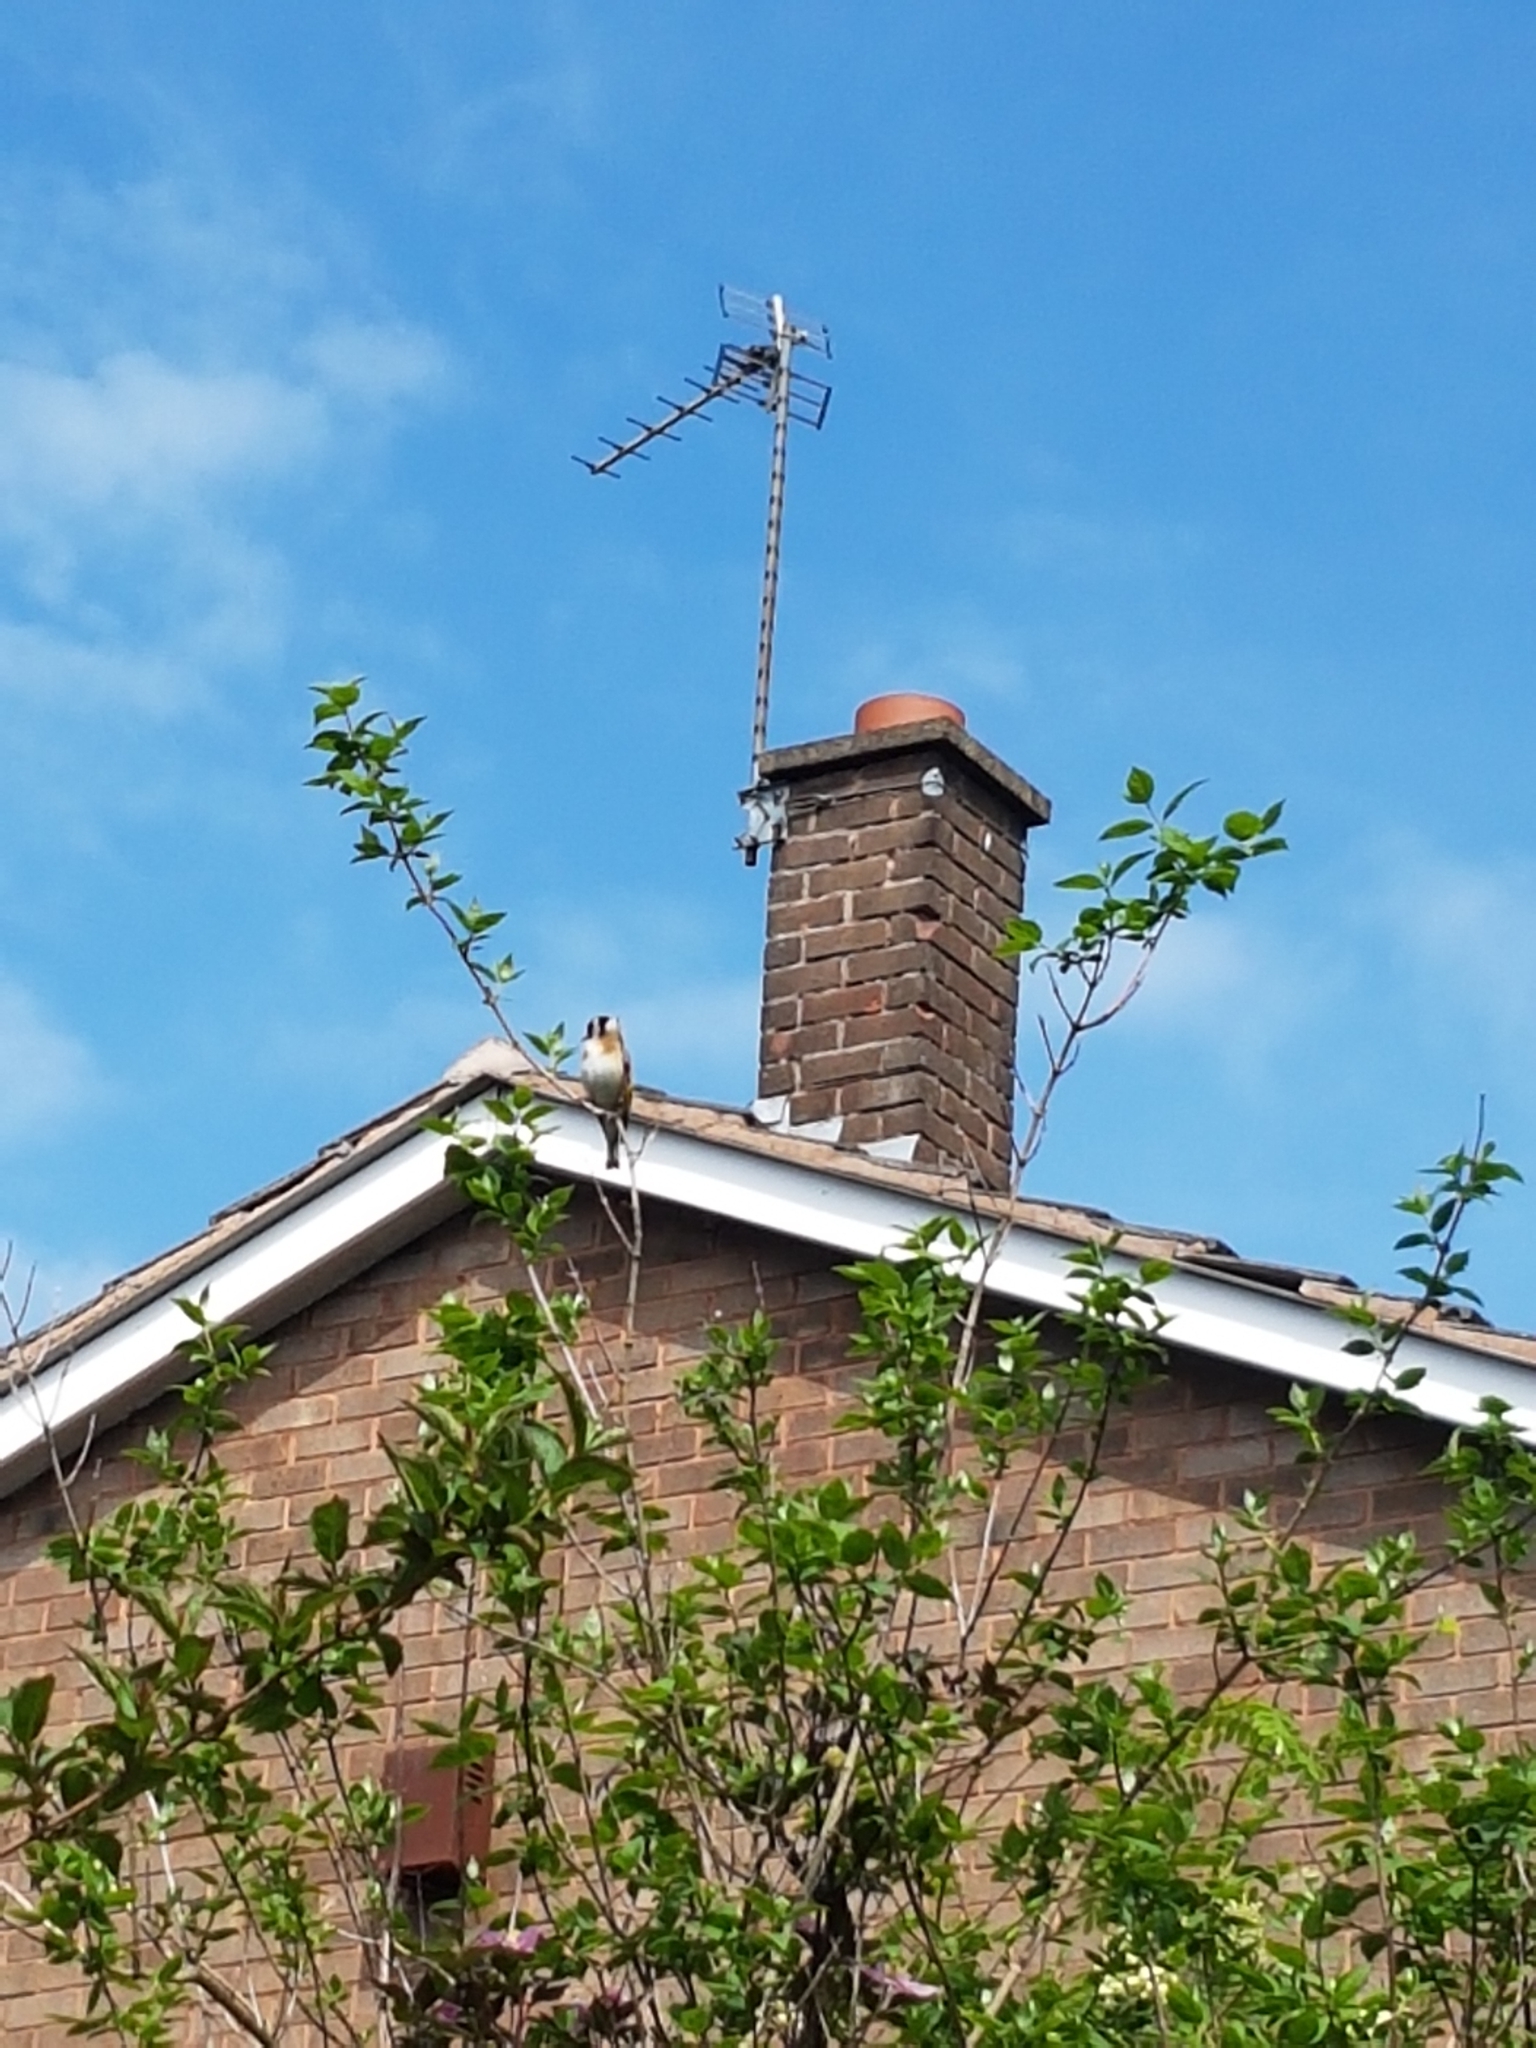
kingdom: Animalia
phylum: Chordata
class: Aves
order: Passeriformes
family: Fringillidae
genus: Carduelis
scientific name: Carduelis carduelis
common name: European goldfinch
